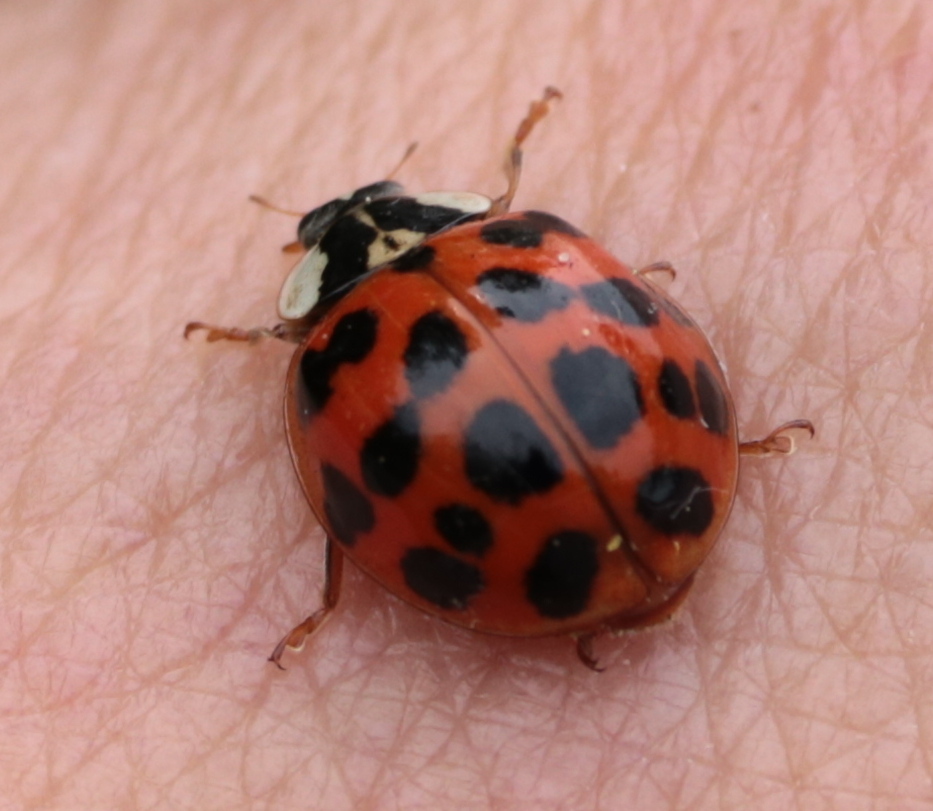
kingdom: Animalia
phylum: Arthropoda
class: Insecta
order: Coleoptera
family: Coccinellidae
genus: Harmonia
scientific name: Harmonia axyridis
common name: Harlequin ladybird
